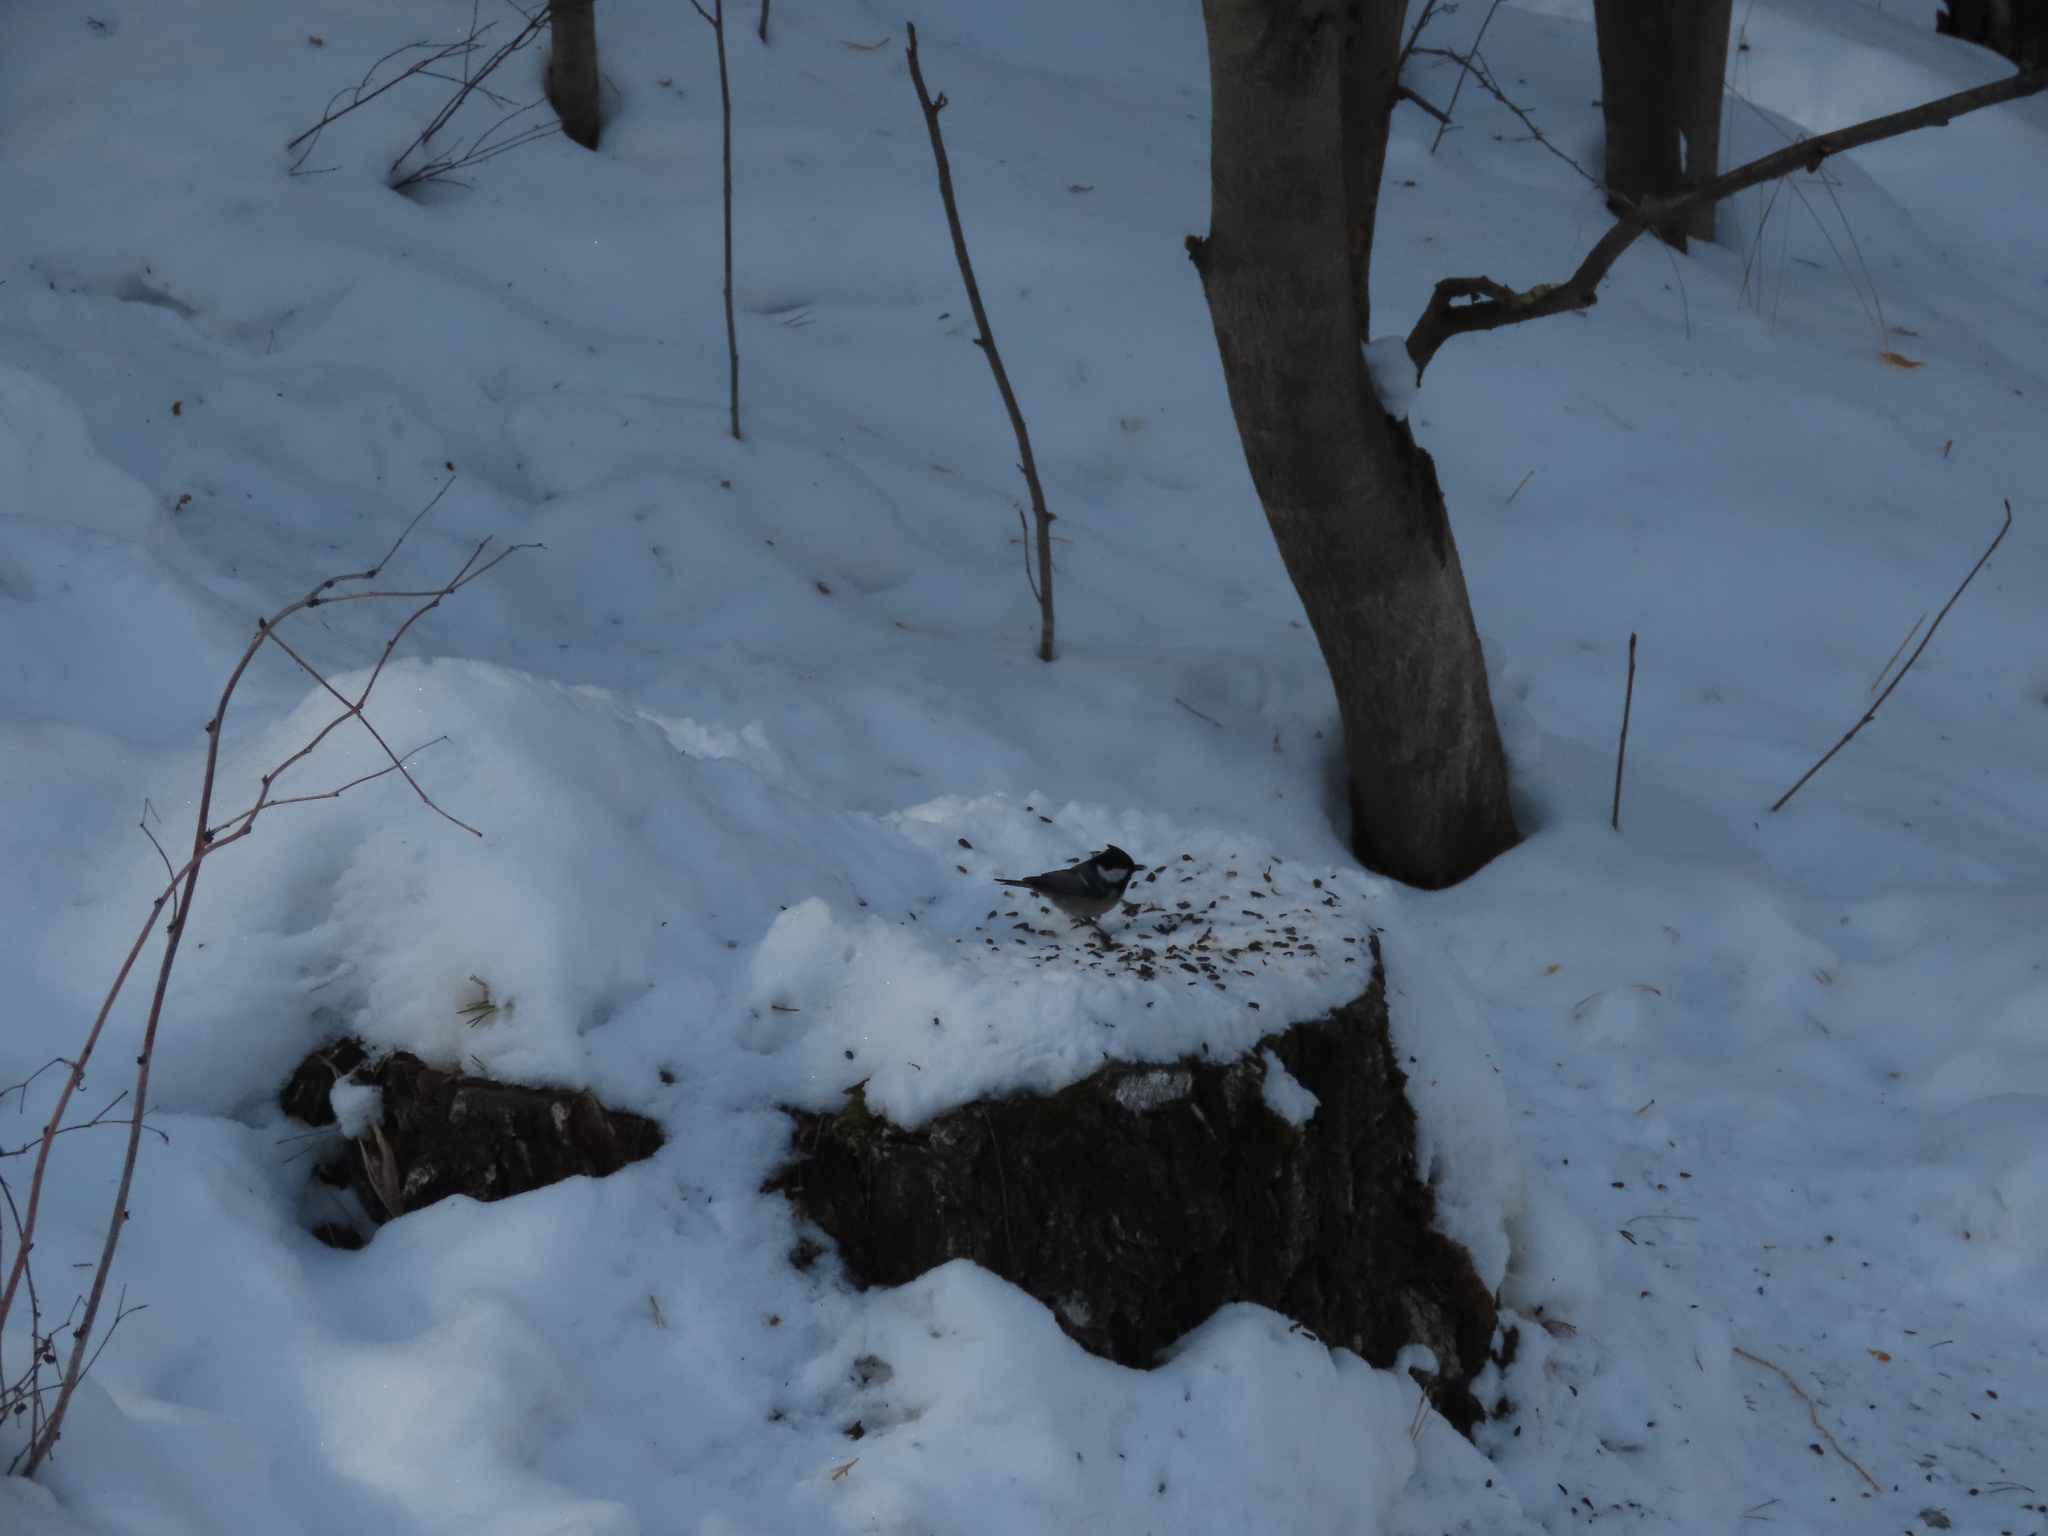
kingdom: Animalia
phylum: Chordata
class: Aves
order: Passeriformes
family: Paridae
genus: Periparus
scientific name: Periparus ater
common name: Coal tit
